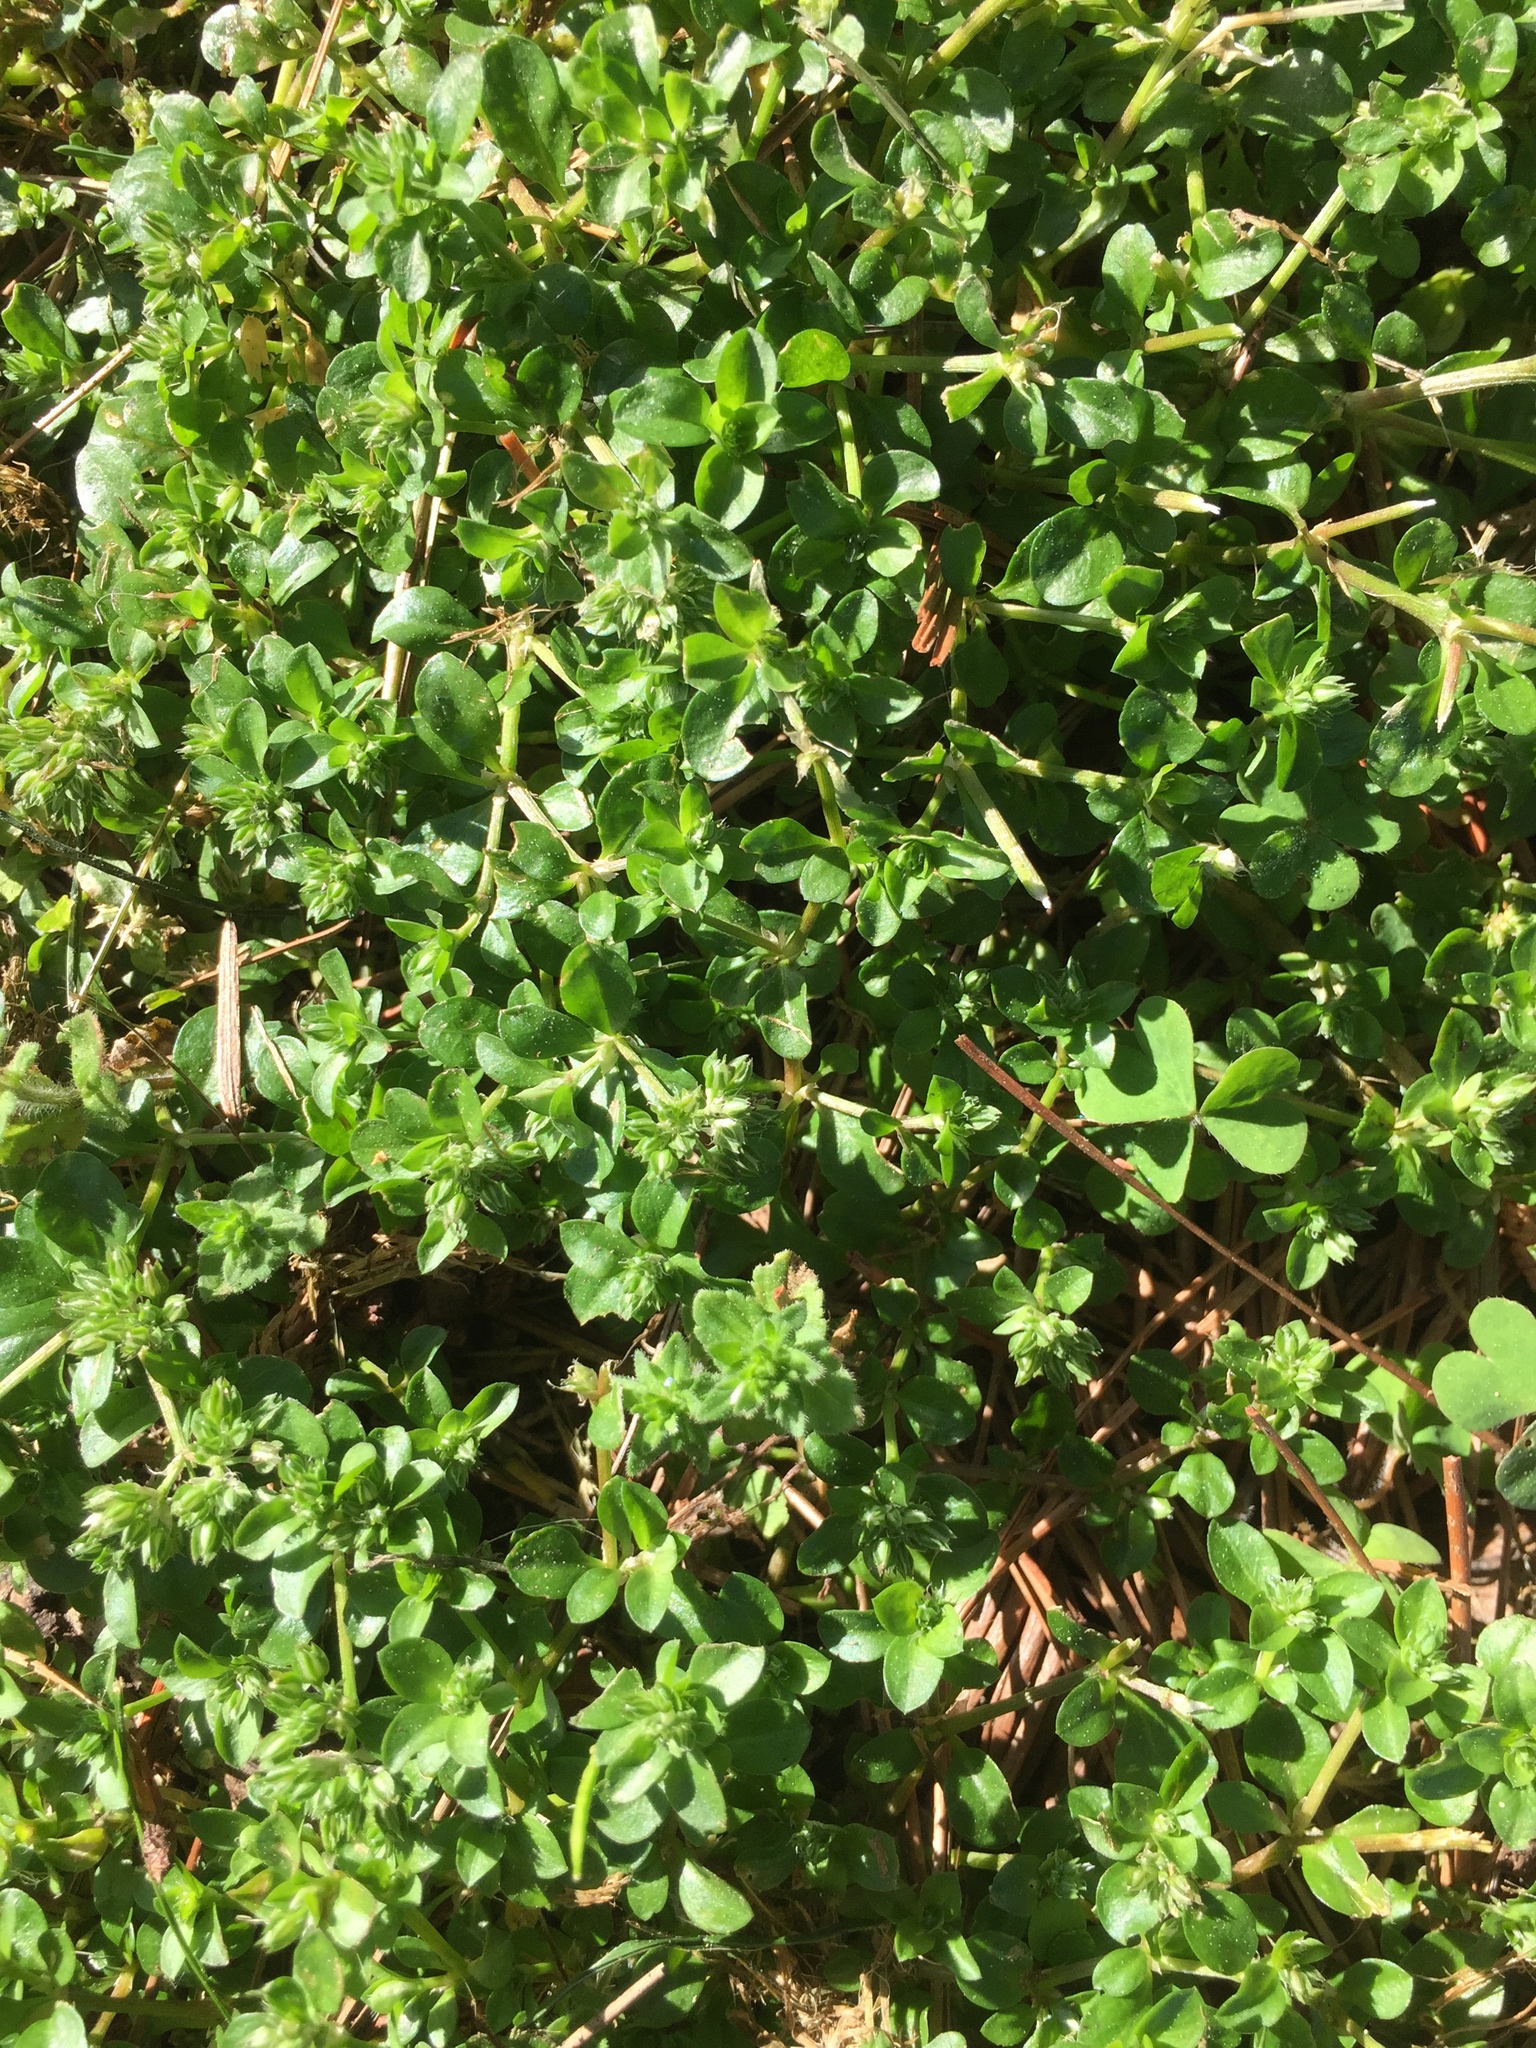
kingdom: Plantae
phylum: Tracheophyta
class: Magnoliopsida
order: Caryophyllales
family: Caryophyllaceae
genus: Polycarpon
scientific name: Polycarpon tetraphyllum
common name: Four-leaved all-seed
